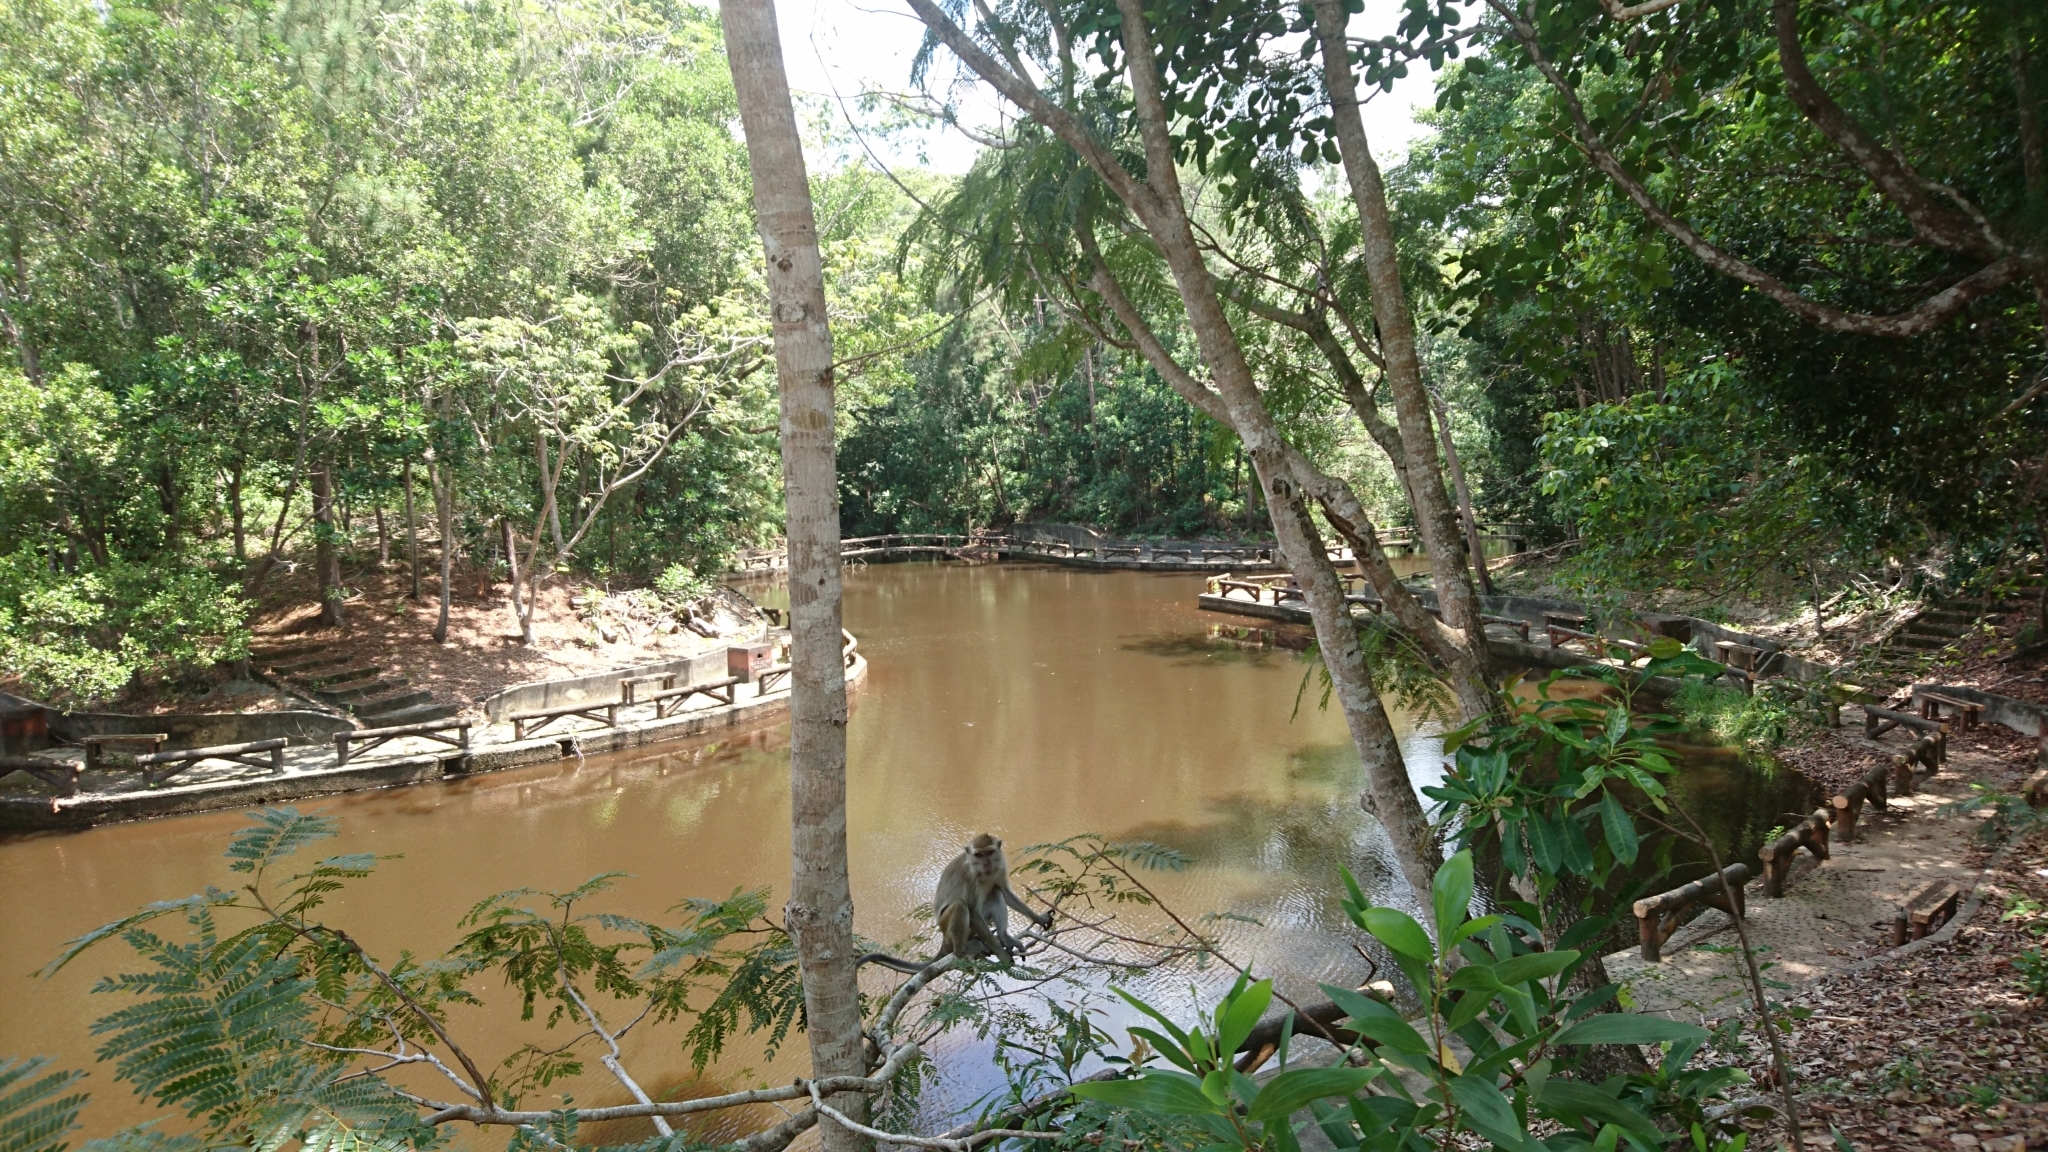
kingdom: Animalia
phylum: Chordata
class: Mammalia
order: Primates
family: Cercopithecidae
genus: Macaca
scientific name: Macaca fascicularis
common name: Crab-eating macaque
